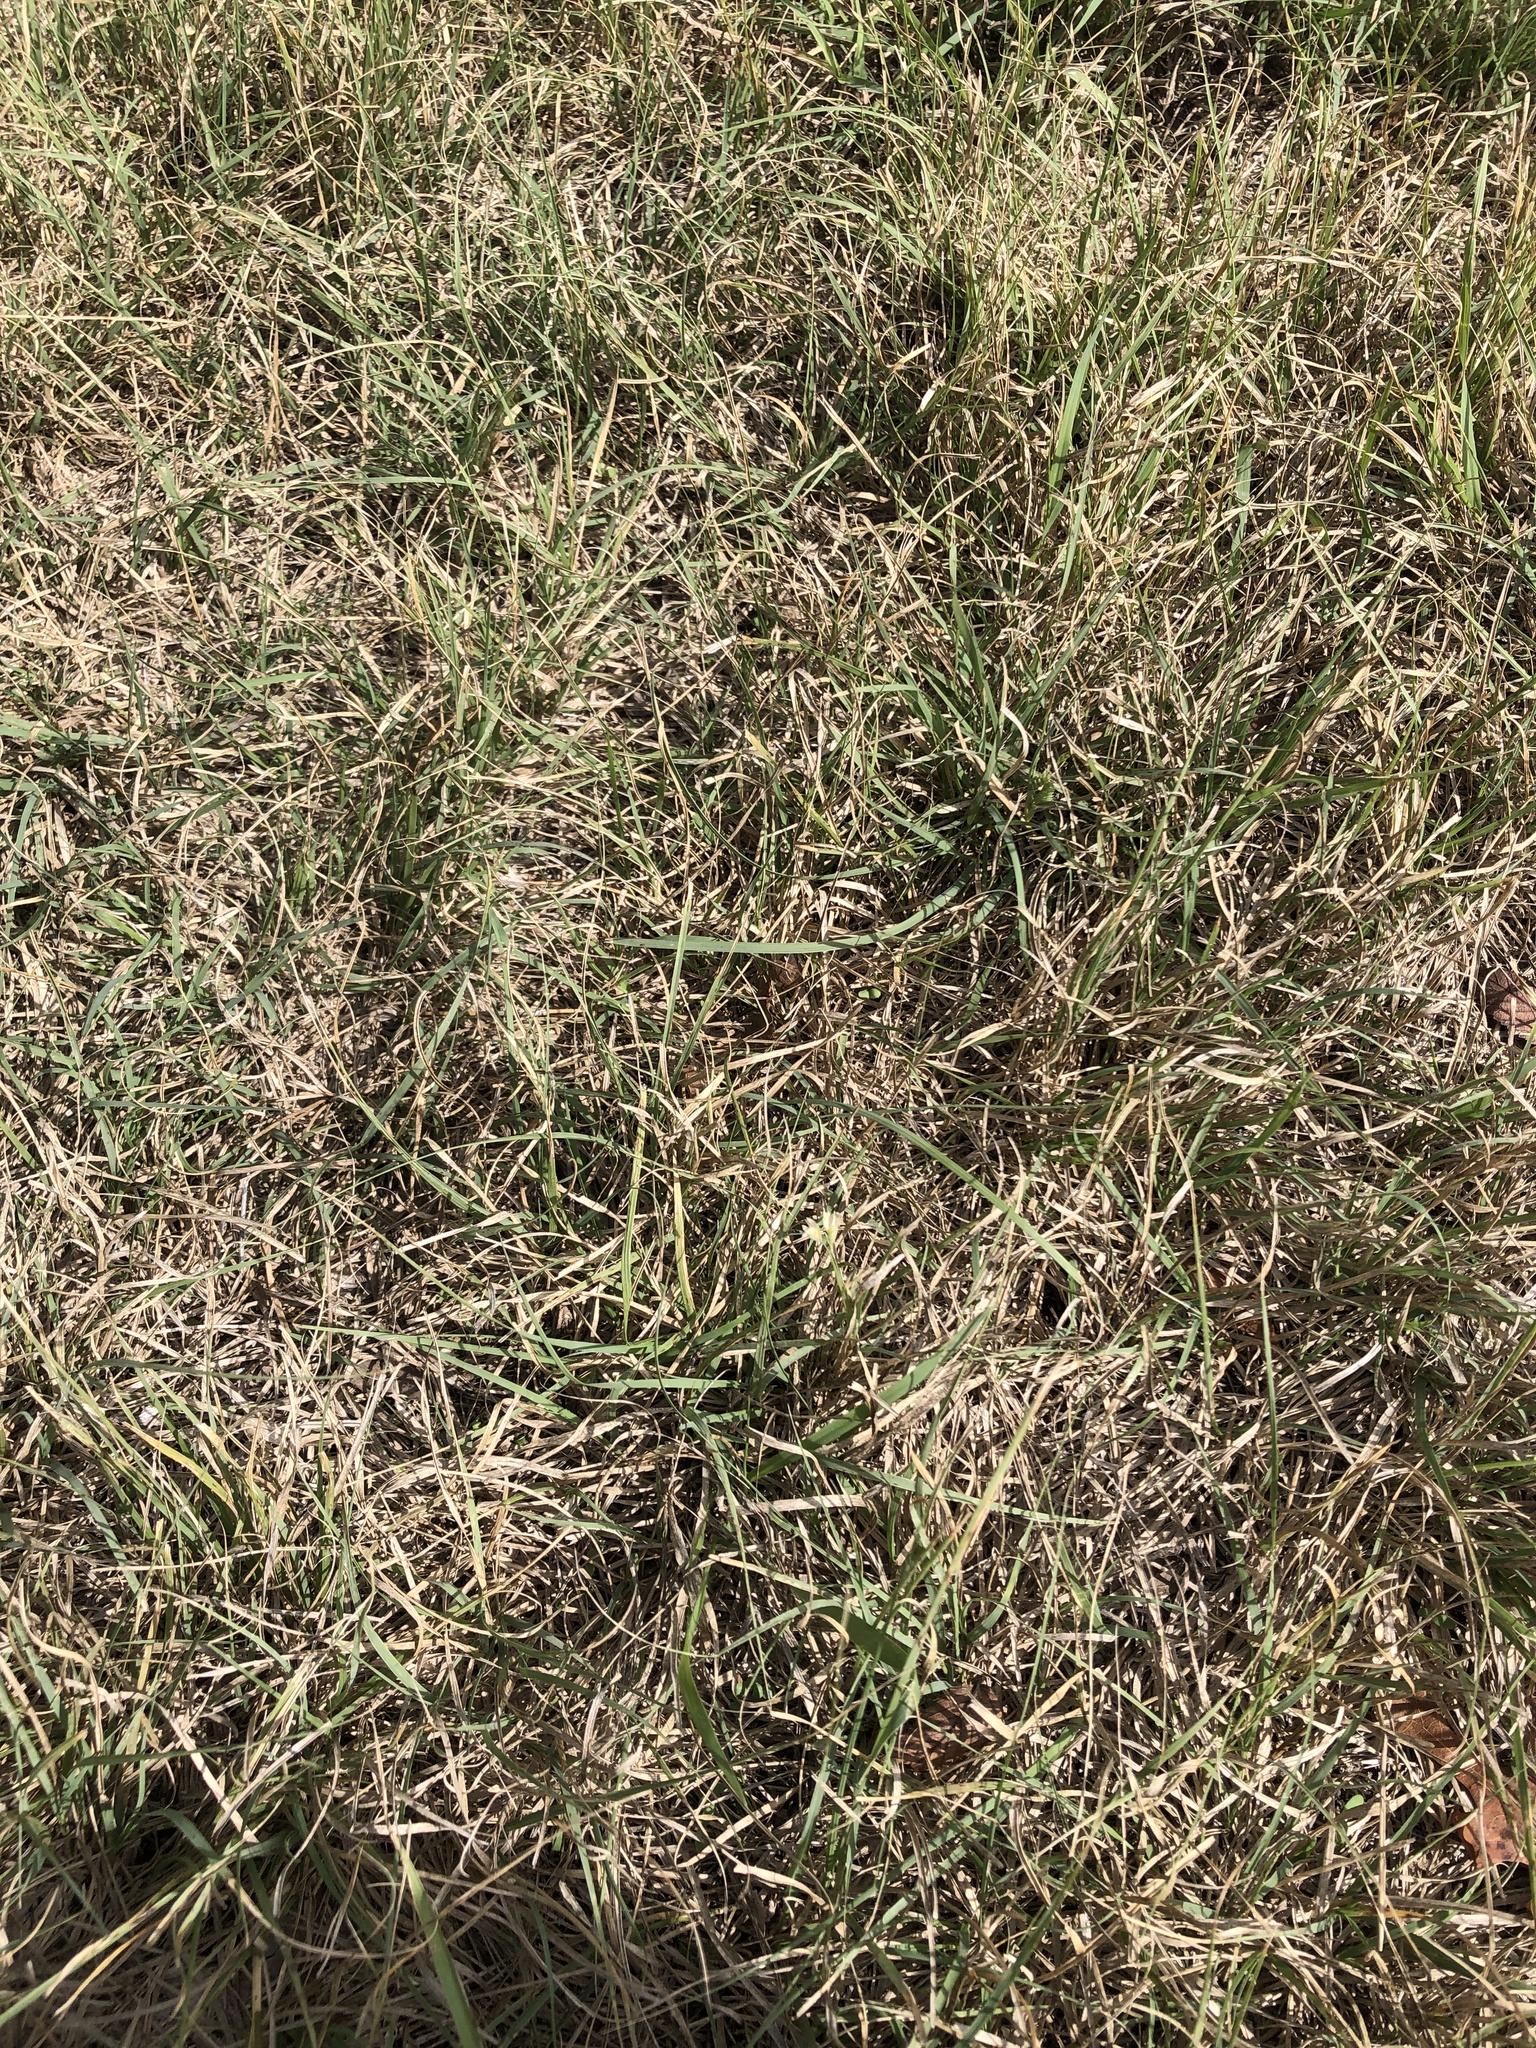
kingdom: Plantae
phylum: Tracheophyta
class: Liliopsida
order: Poales
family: Poaceae
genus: Bouteloua
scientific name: Bouteloua dactyloides
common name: Buffalo grass
